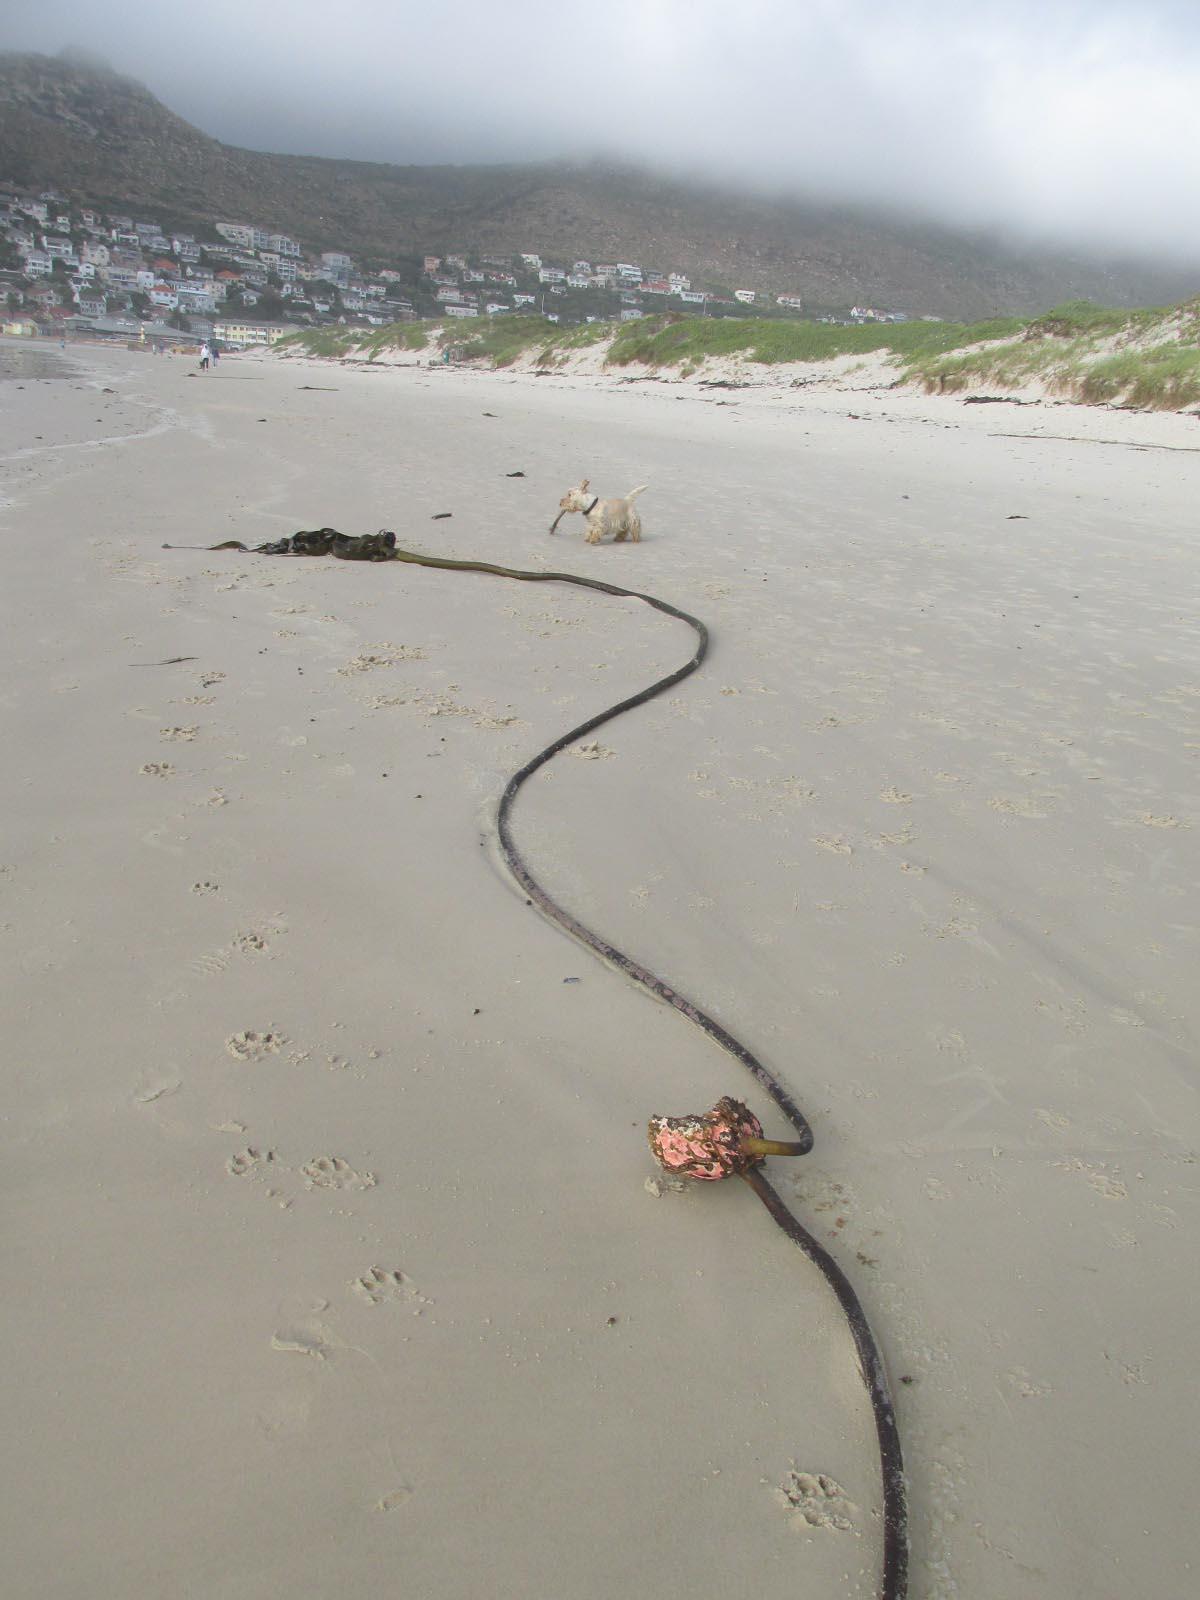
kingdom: Chromista
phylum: Ochrophyta
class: Phaeophyceae
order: Laminariales
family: Lessoniaceae
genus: Ecklonia
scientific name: Ecklonia
